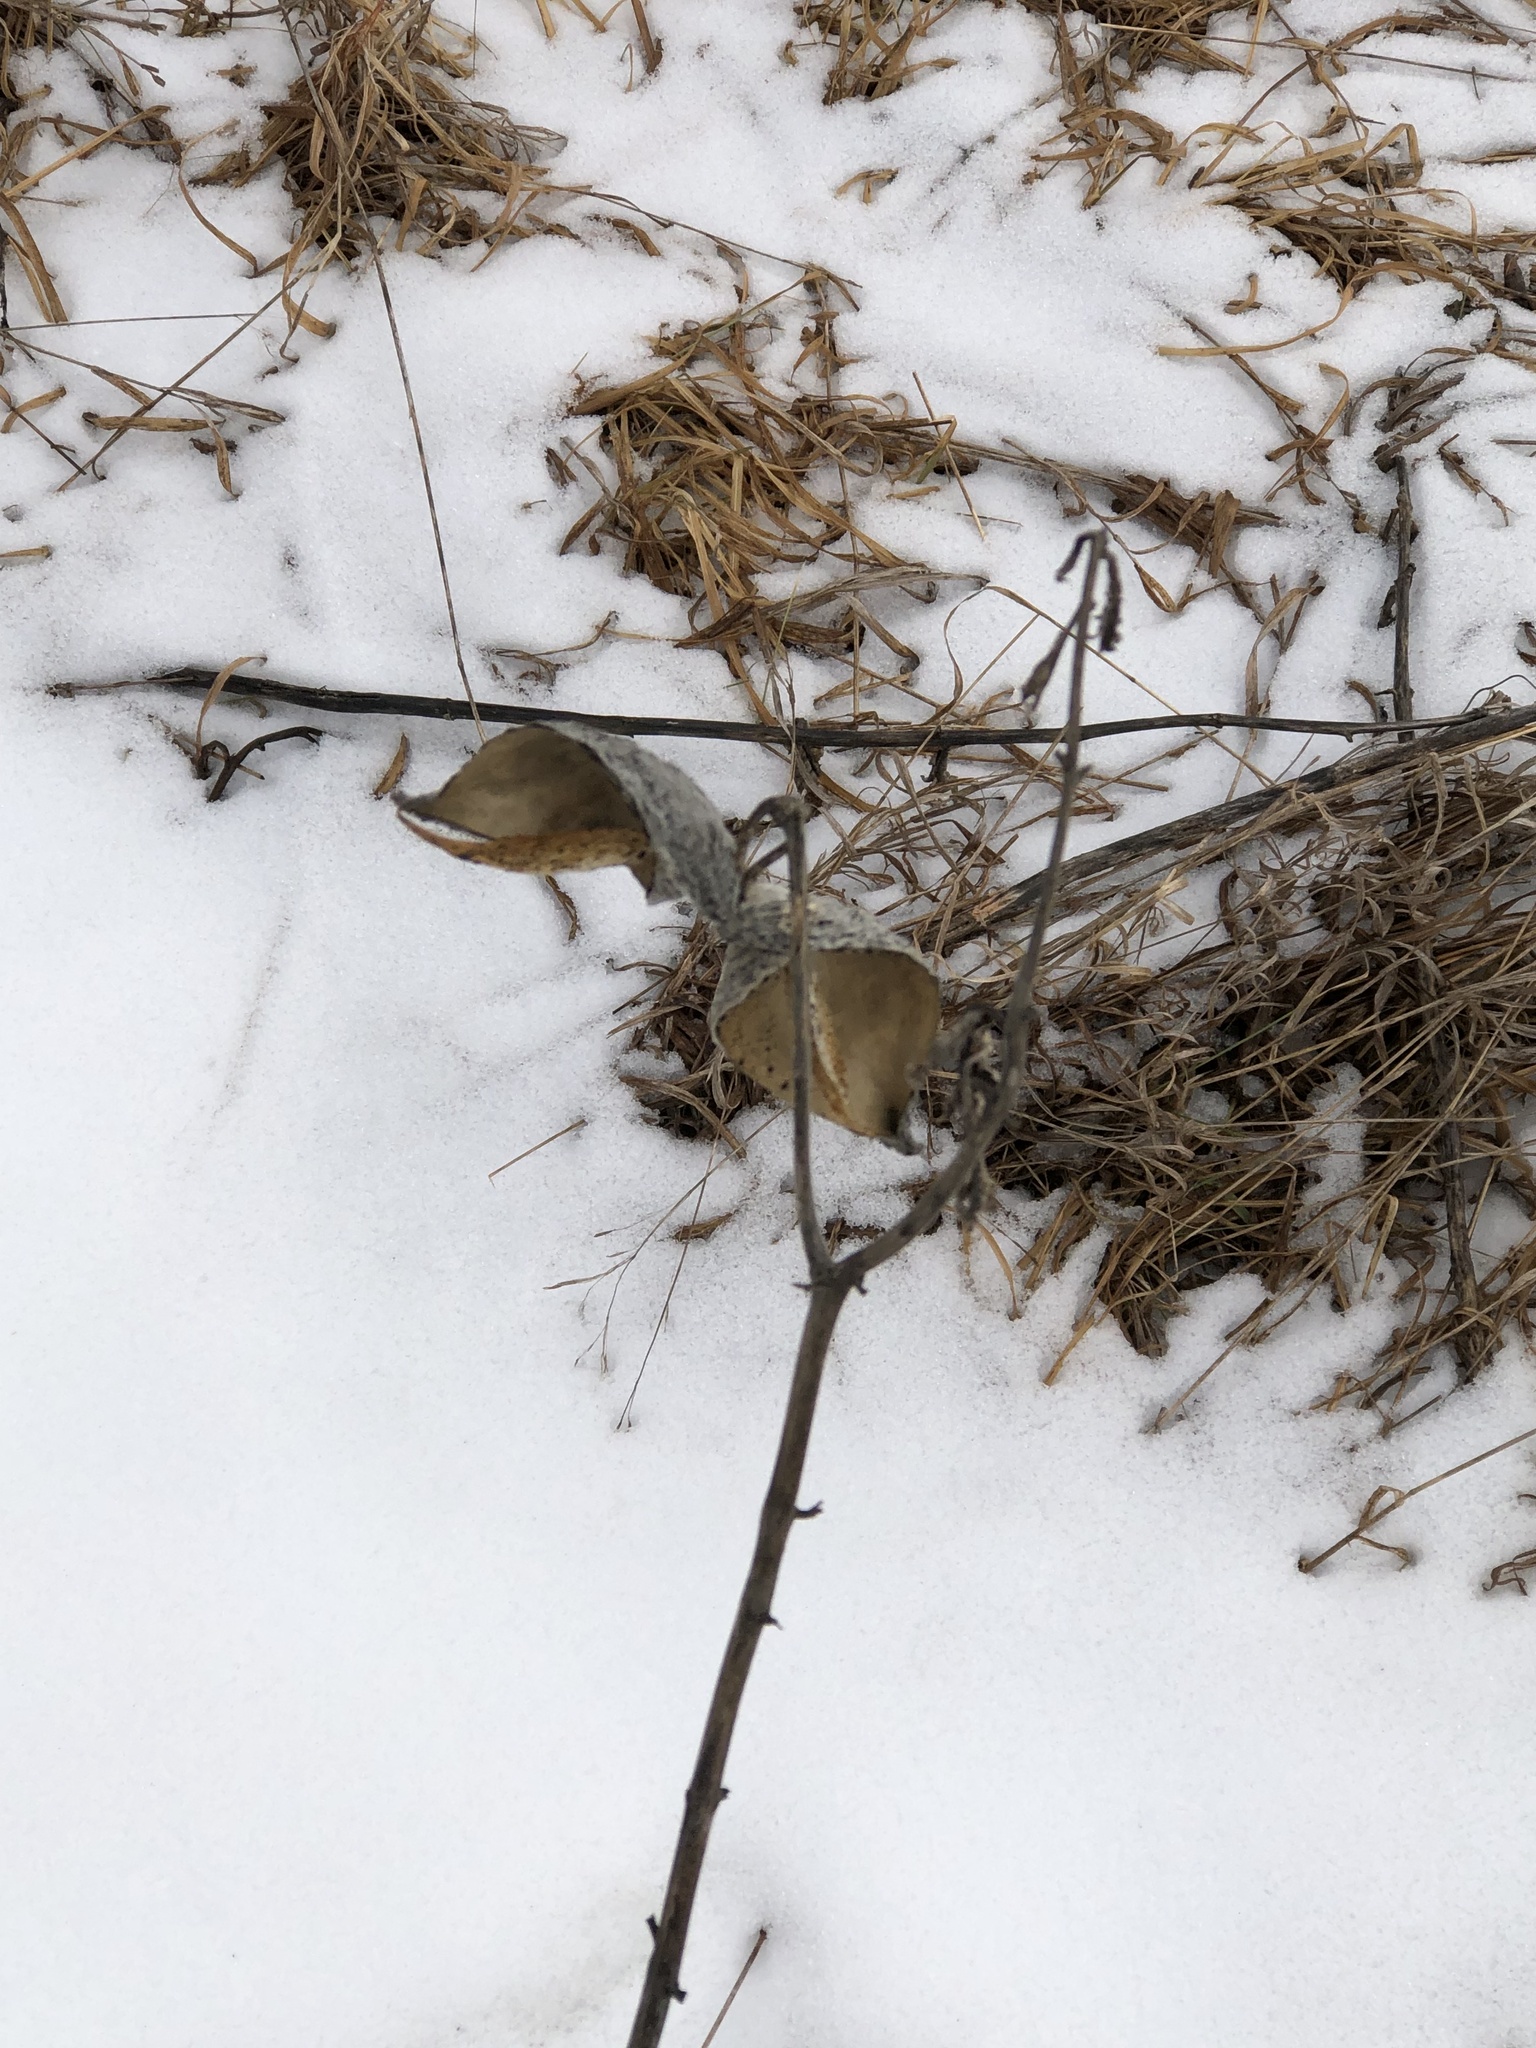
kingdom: Plantae
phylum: Tracheophyta
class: Magnoliopsida
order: Gentianales
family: Apocynaceae
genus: Asclepias
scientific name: Asclepias syriaca
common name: Common milkweed
